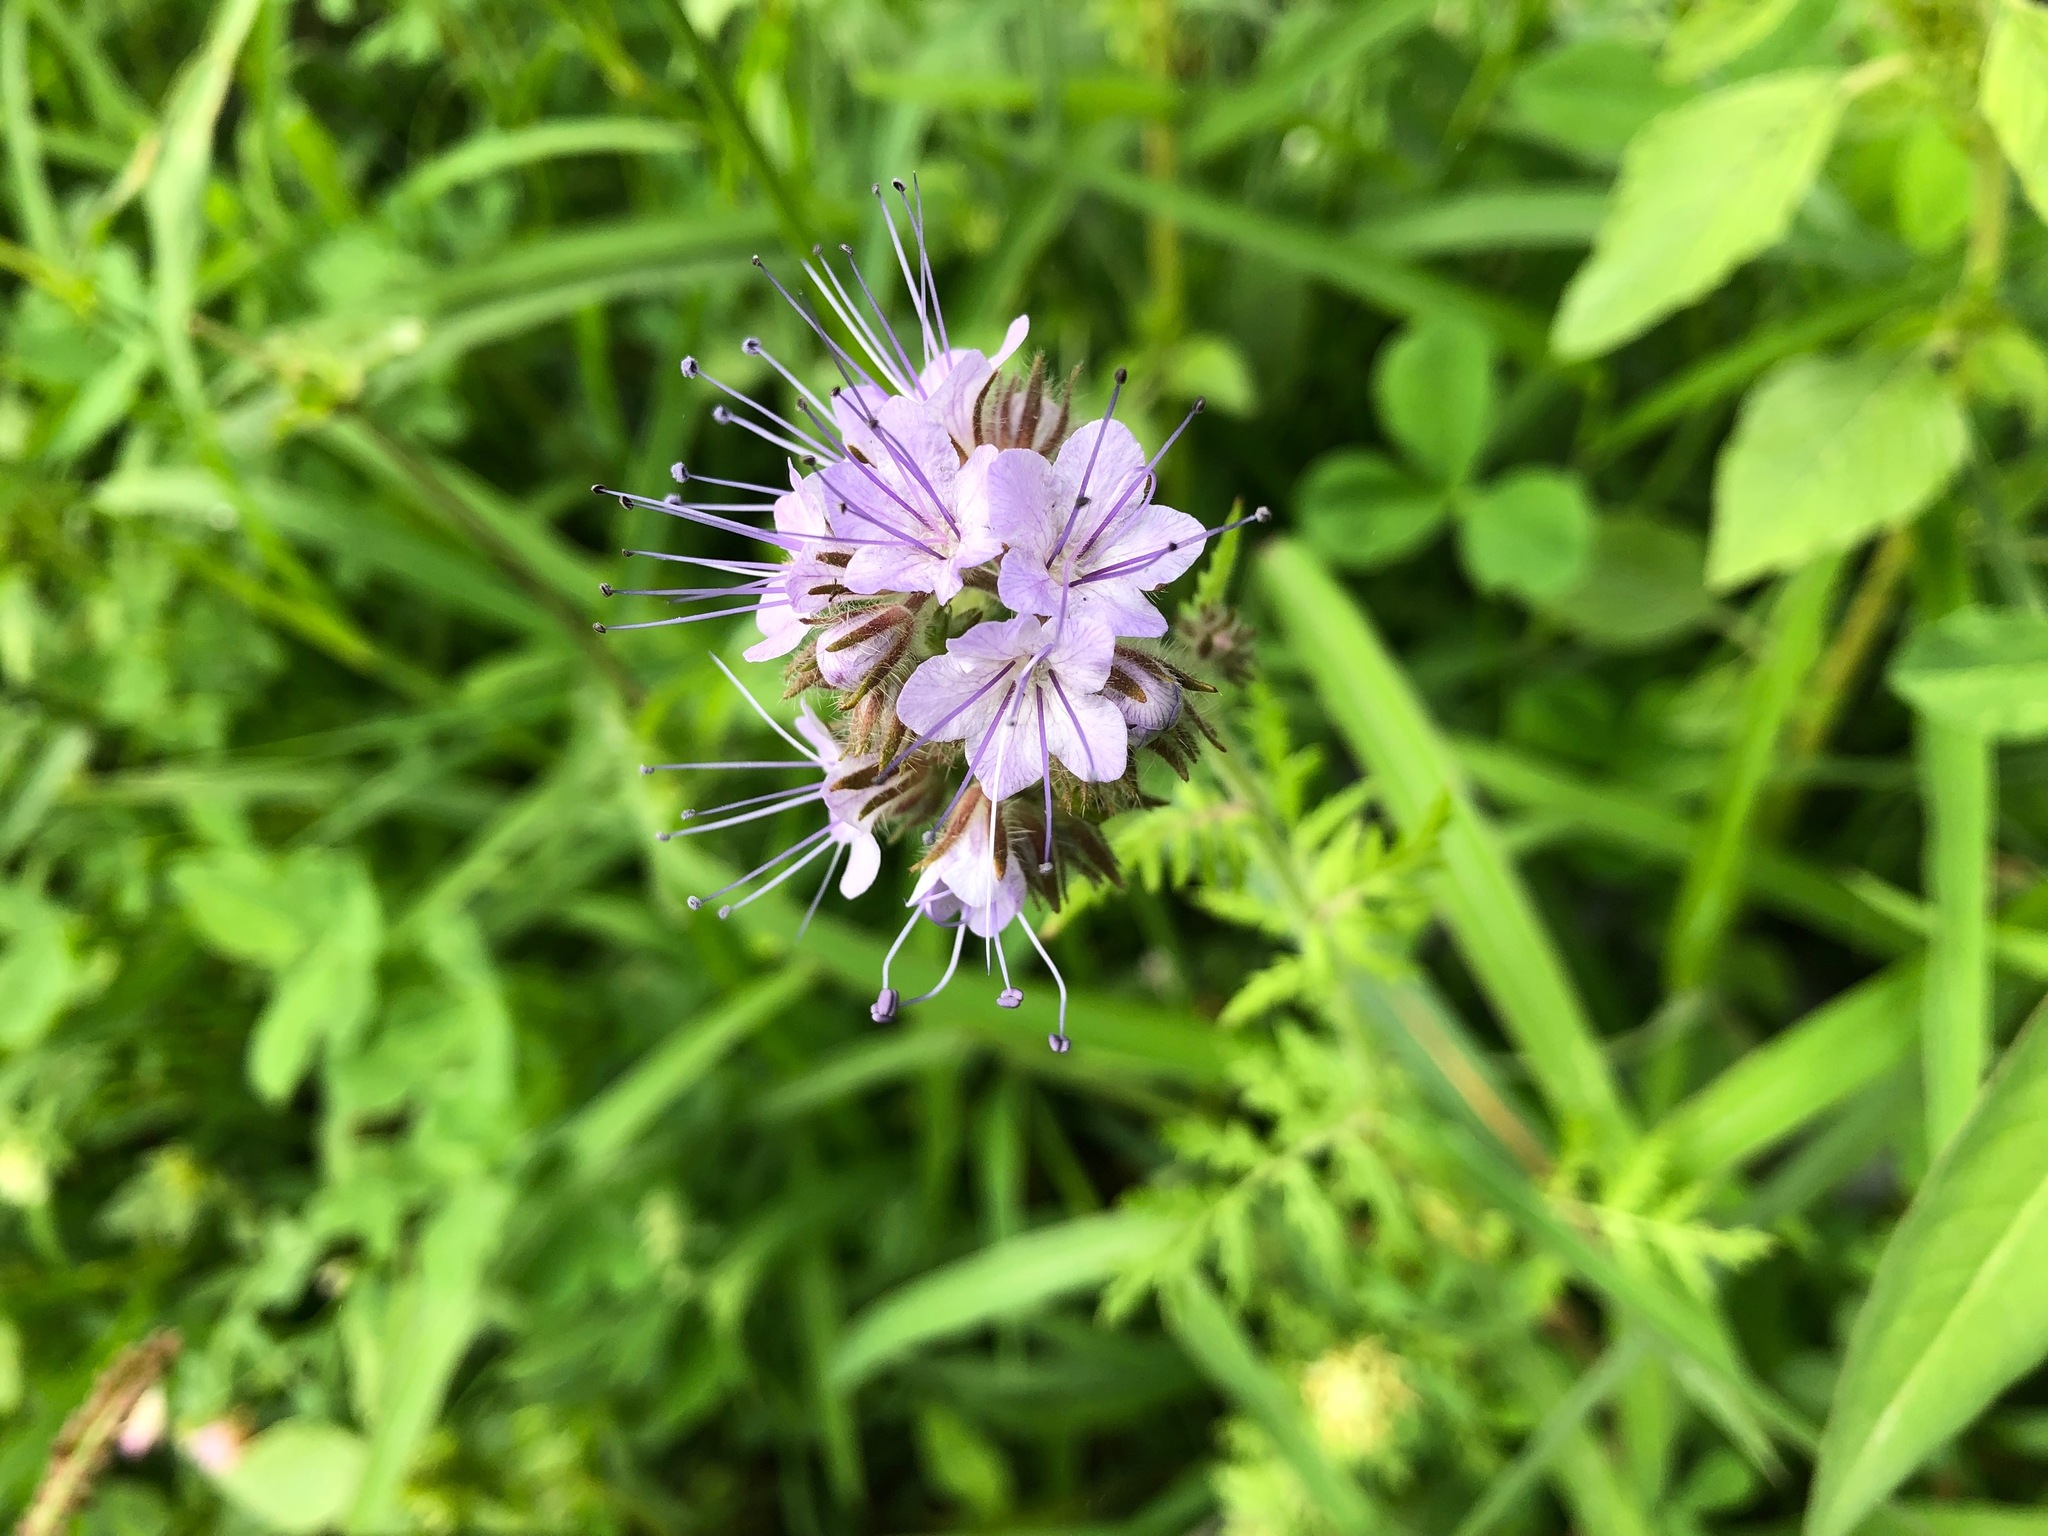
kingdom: Plantae
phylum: Tracheophyta
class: Magnoliopsida
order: Boraginales
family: Hydrophyllaceae
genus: Phacelia
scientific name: Phacelia tanacetifolia
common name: Phacelia
